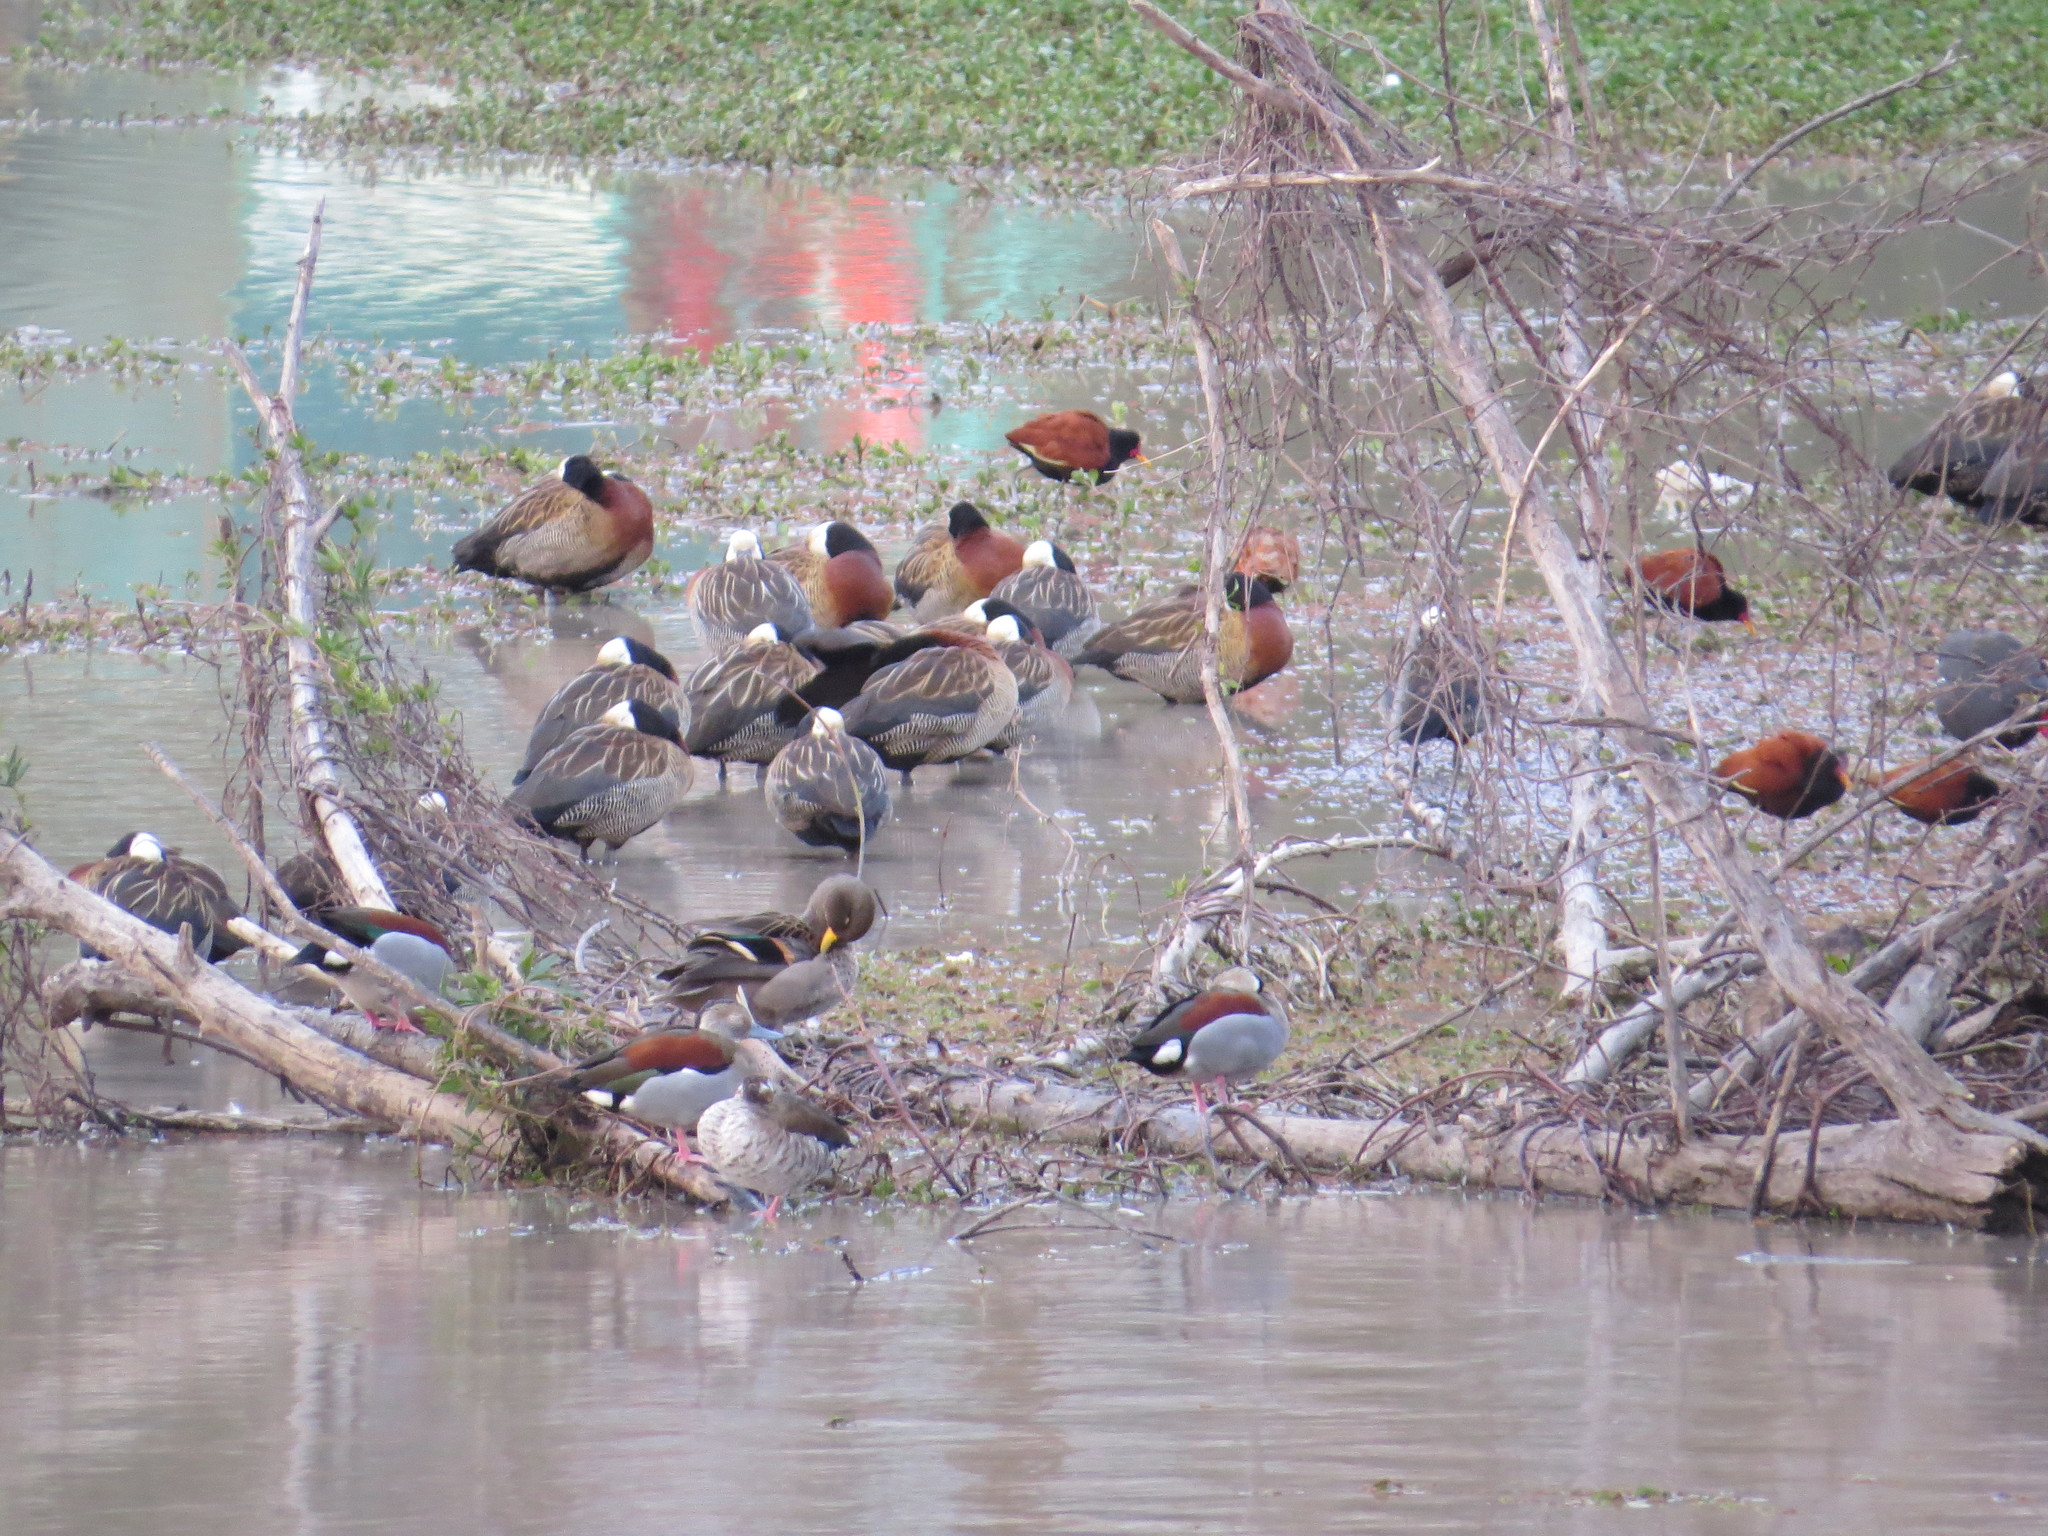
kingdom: Animalia
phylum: Chordata
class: Aves
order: Anseriformes
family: Anatidae
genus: Callonetta
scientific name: Callonetta leucophrys
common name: Ringed teal
